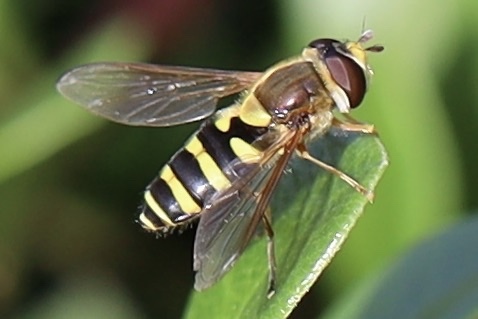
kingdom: Animalia
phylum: Arthropoda
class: Insecta
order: Diptera
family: Syrphidae
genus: Syrphus
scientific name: Syrphus opinator
